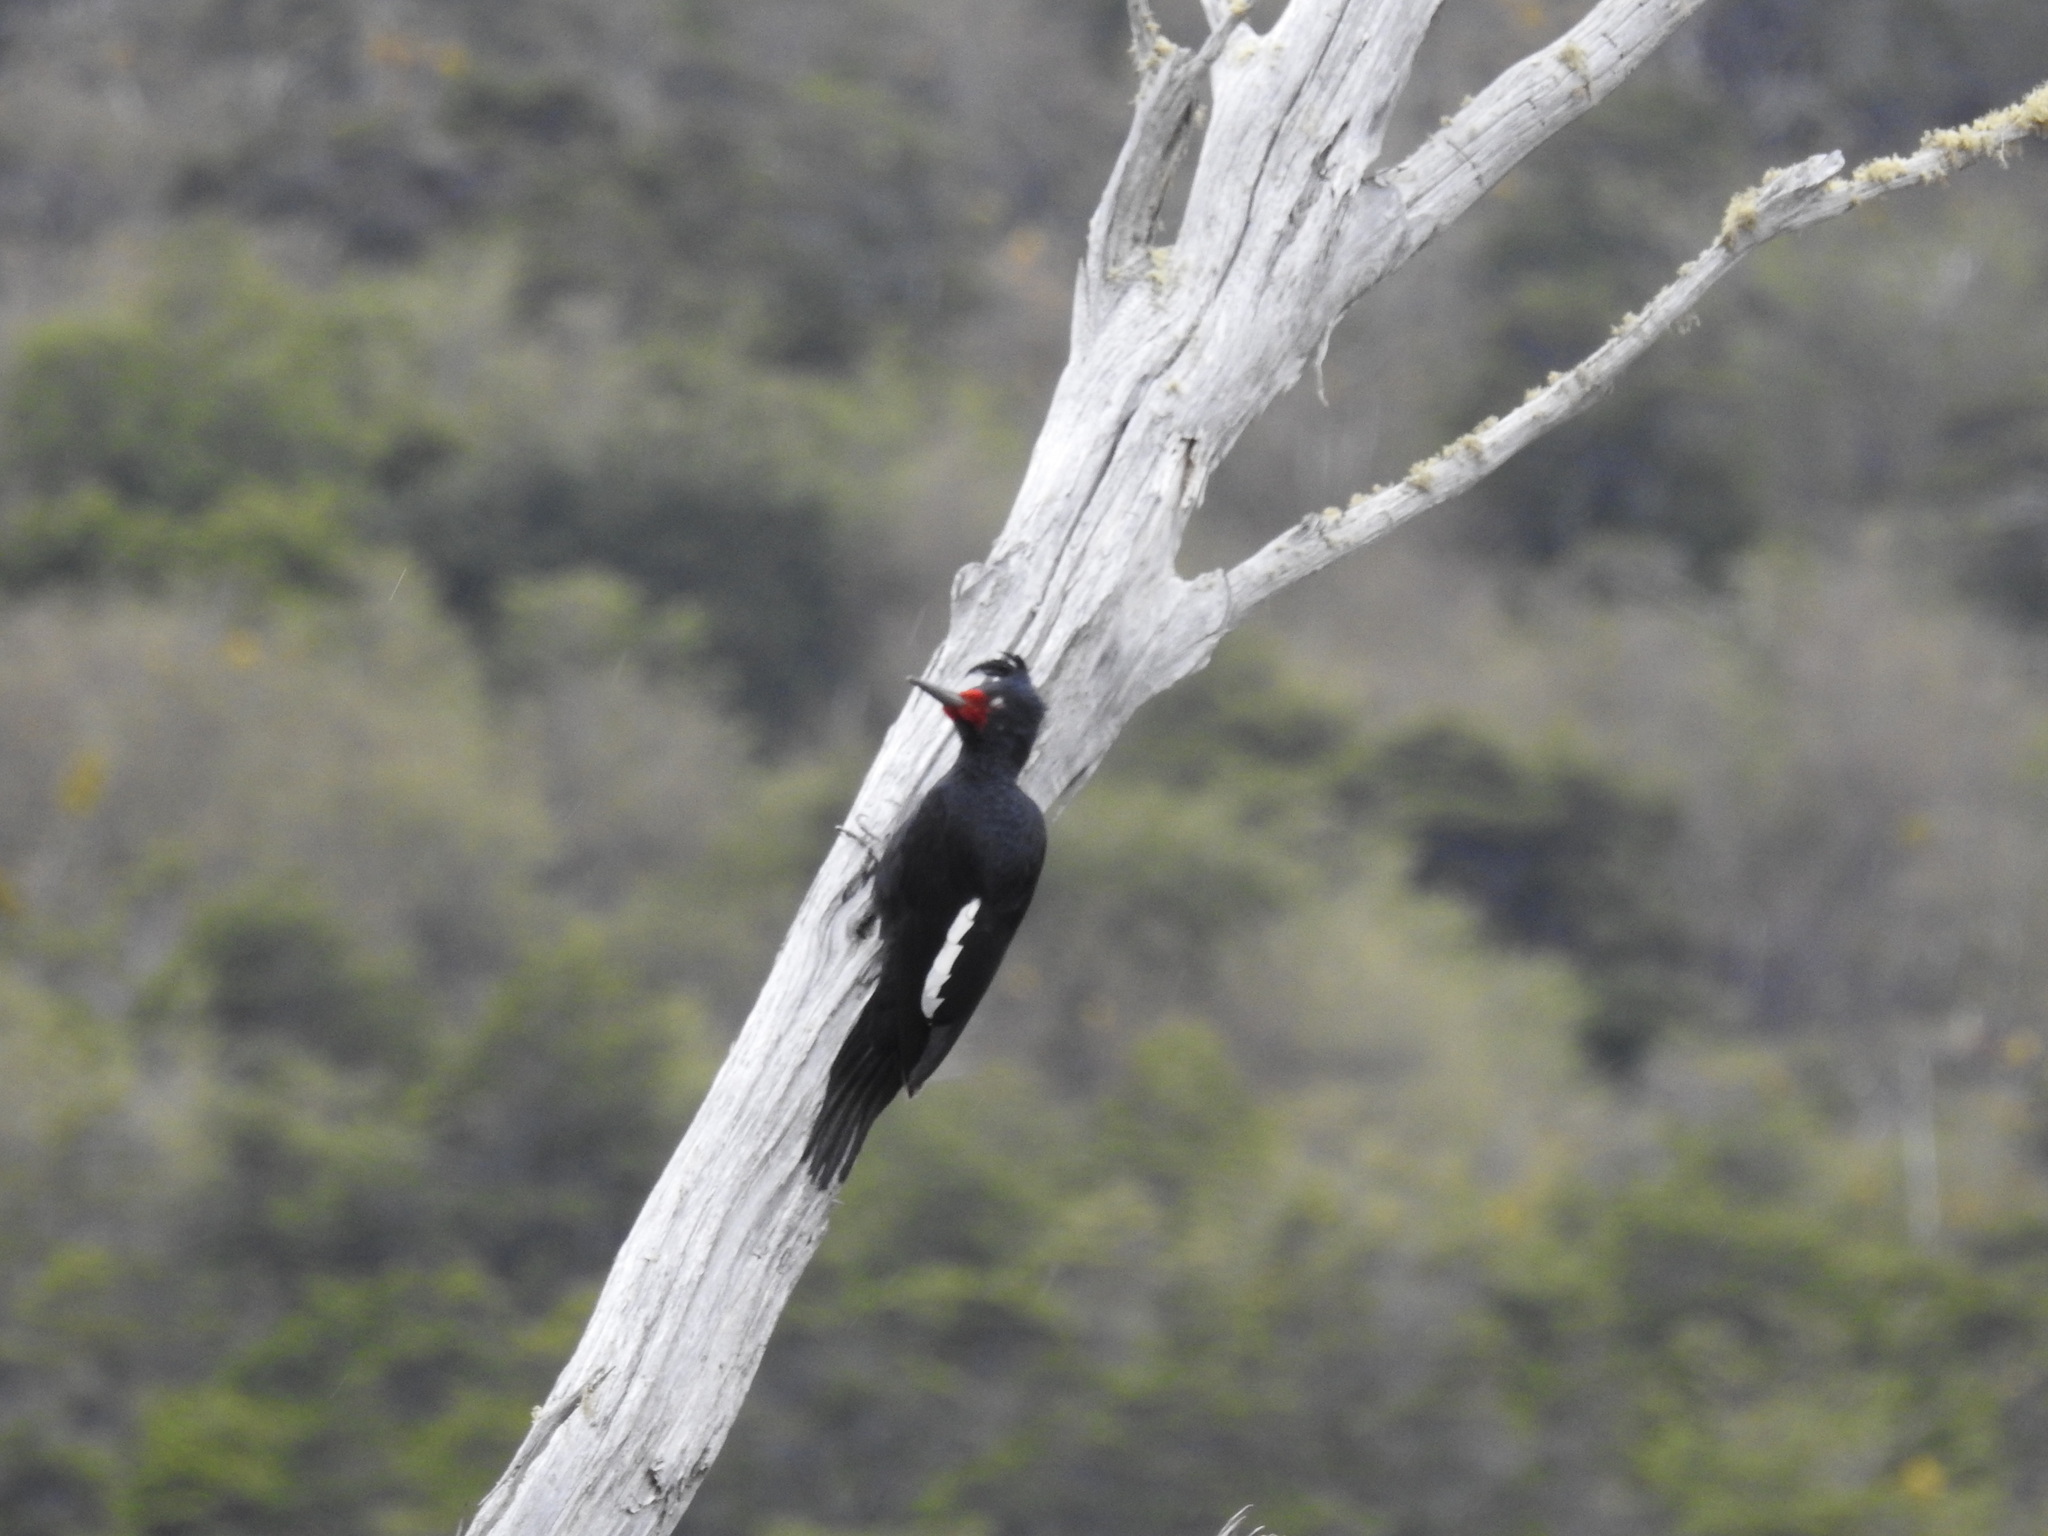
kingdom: Animalia
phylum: Chordata
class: Aves
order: Piciformes
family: Picidae
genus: Campephilus
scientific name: Campephilus magellanicus
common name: Magellanic woodpecker
